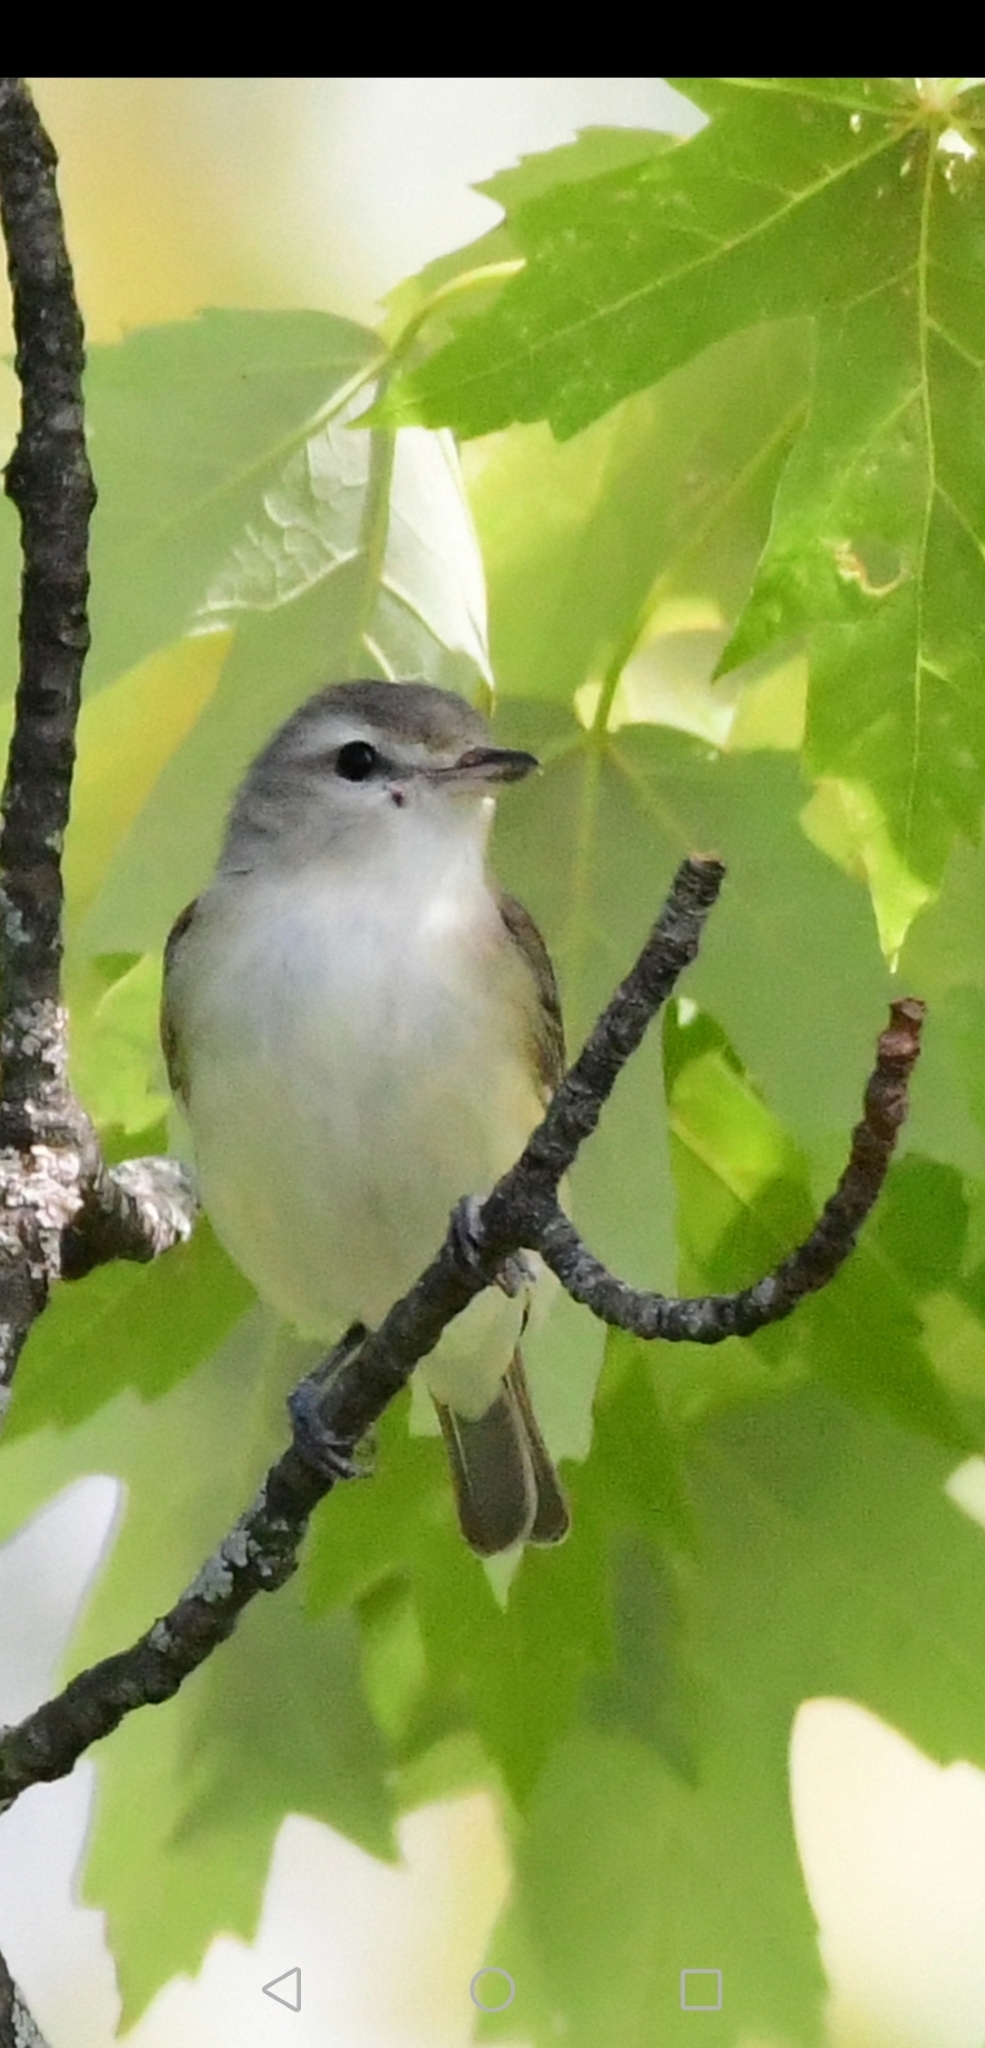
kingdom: Animalia
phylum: Chordata
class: Aves
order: Passeriformes
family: Vireonidae
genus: Vireo
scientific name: Vireo gilvus
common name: Warbling vireo
